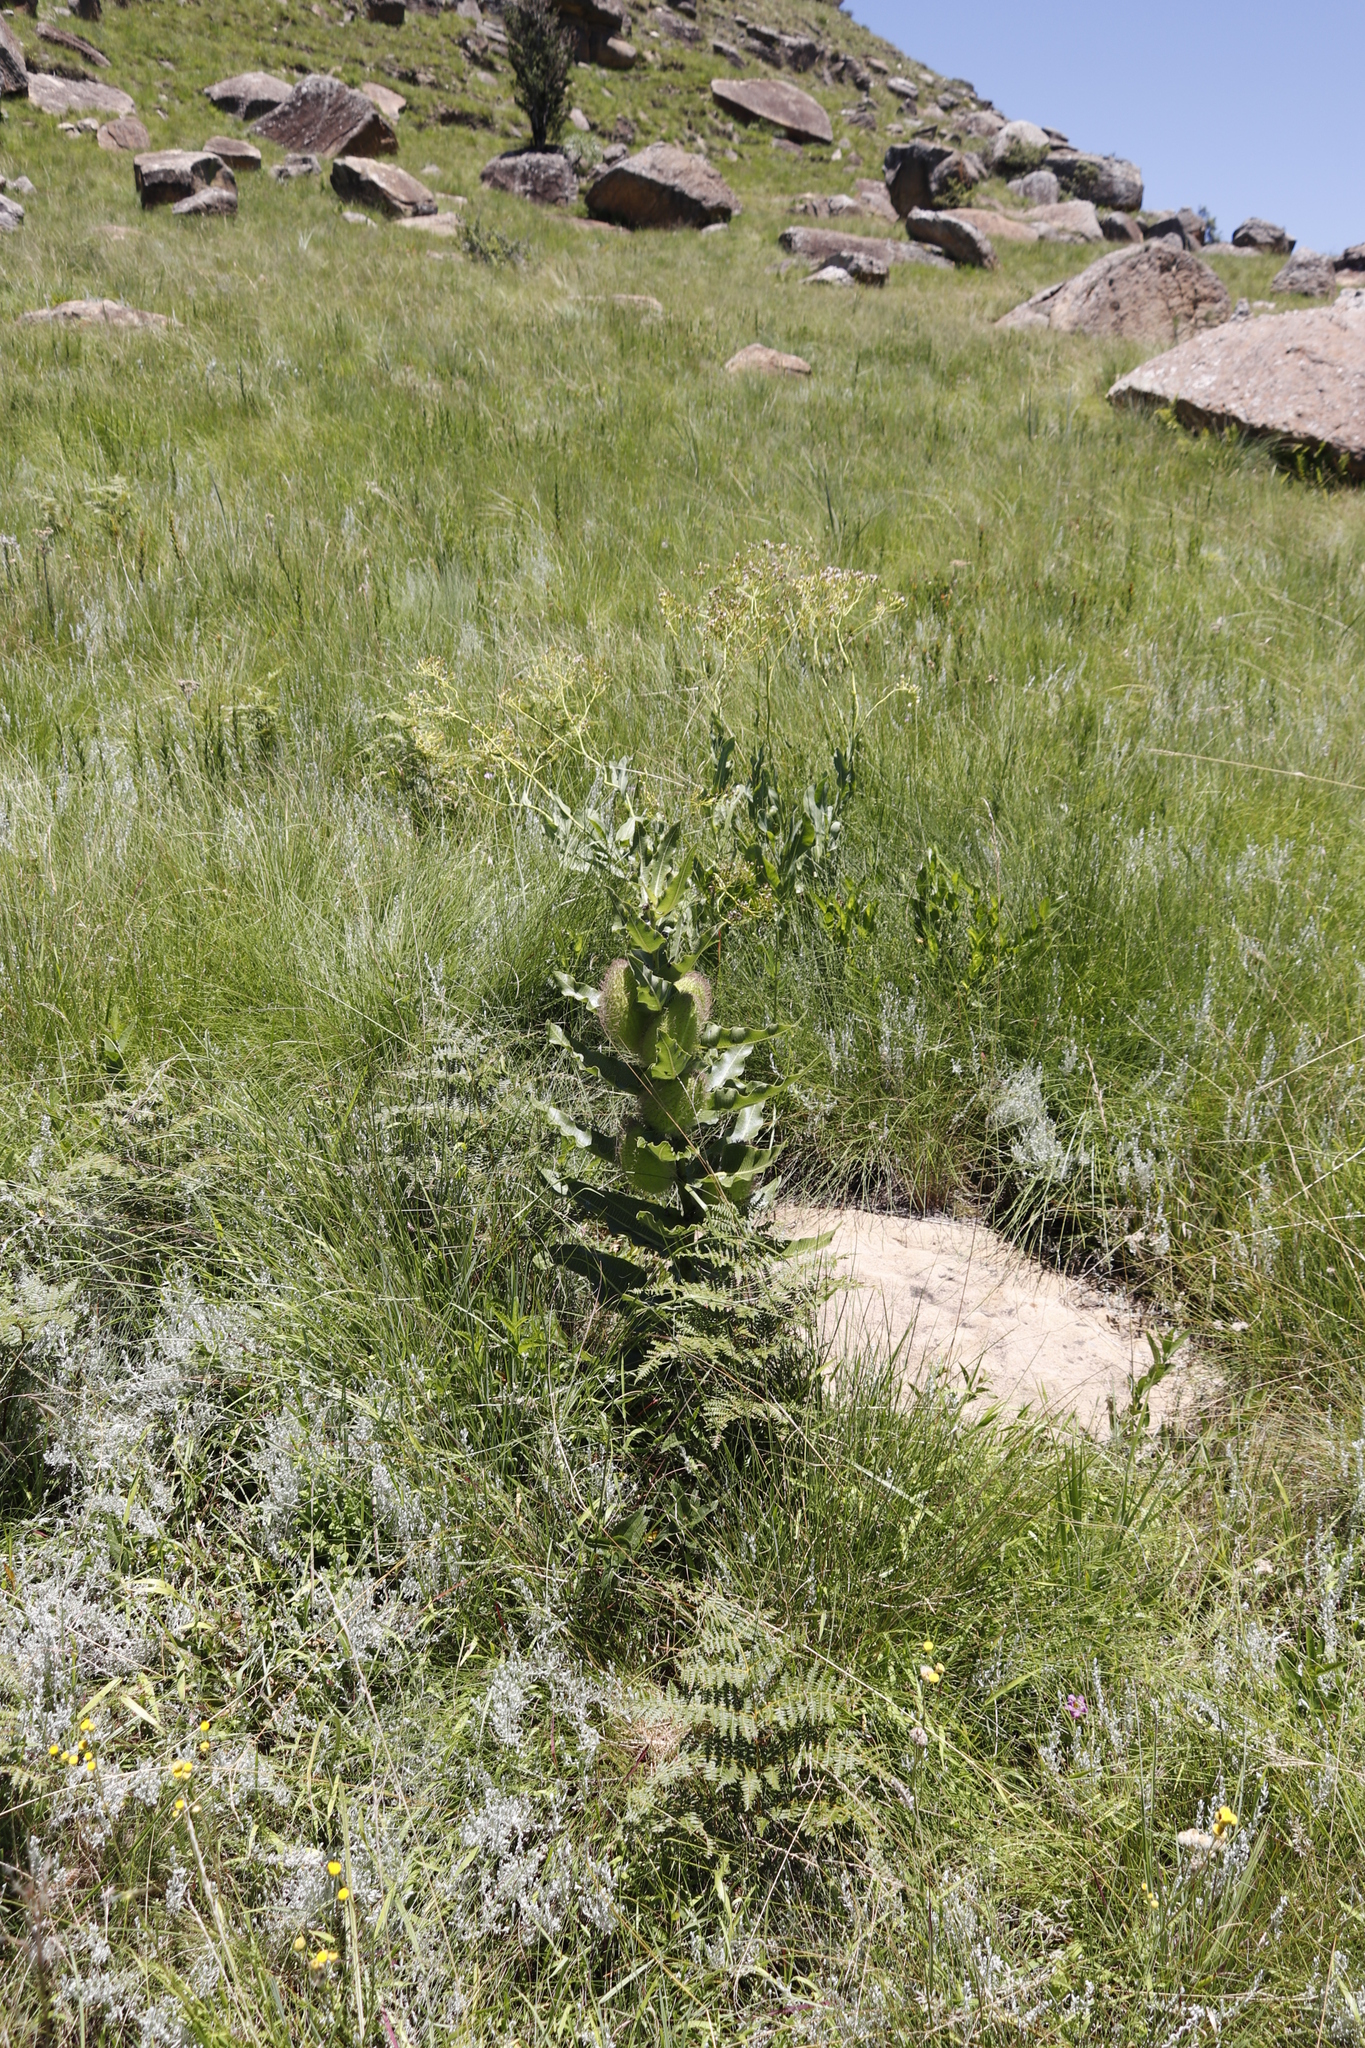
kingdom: Plantae
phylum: Tracheophyta
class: Magnoliopsida
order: Gentianales
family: Apocynaceae
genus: Xysmalobium
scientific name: Xysmalobium undulatum
